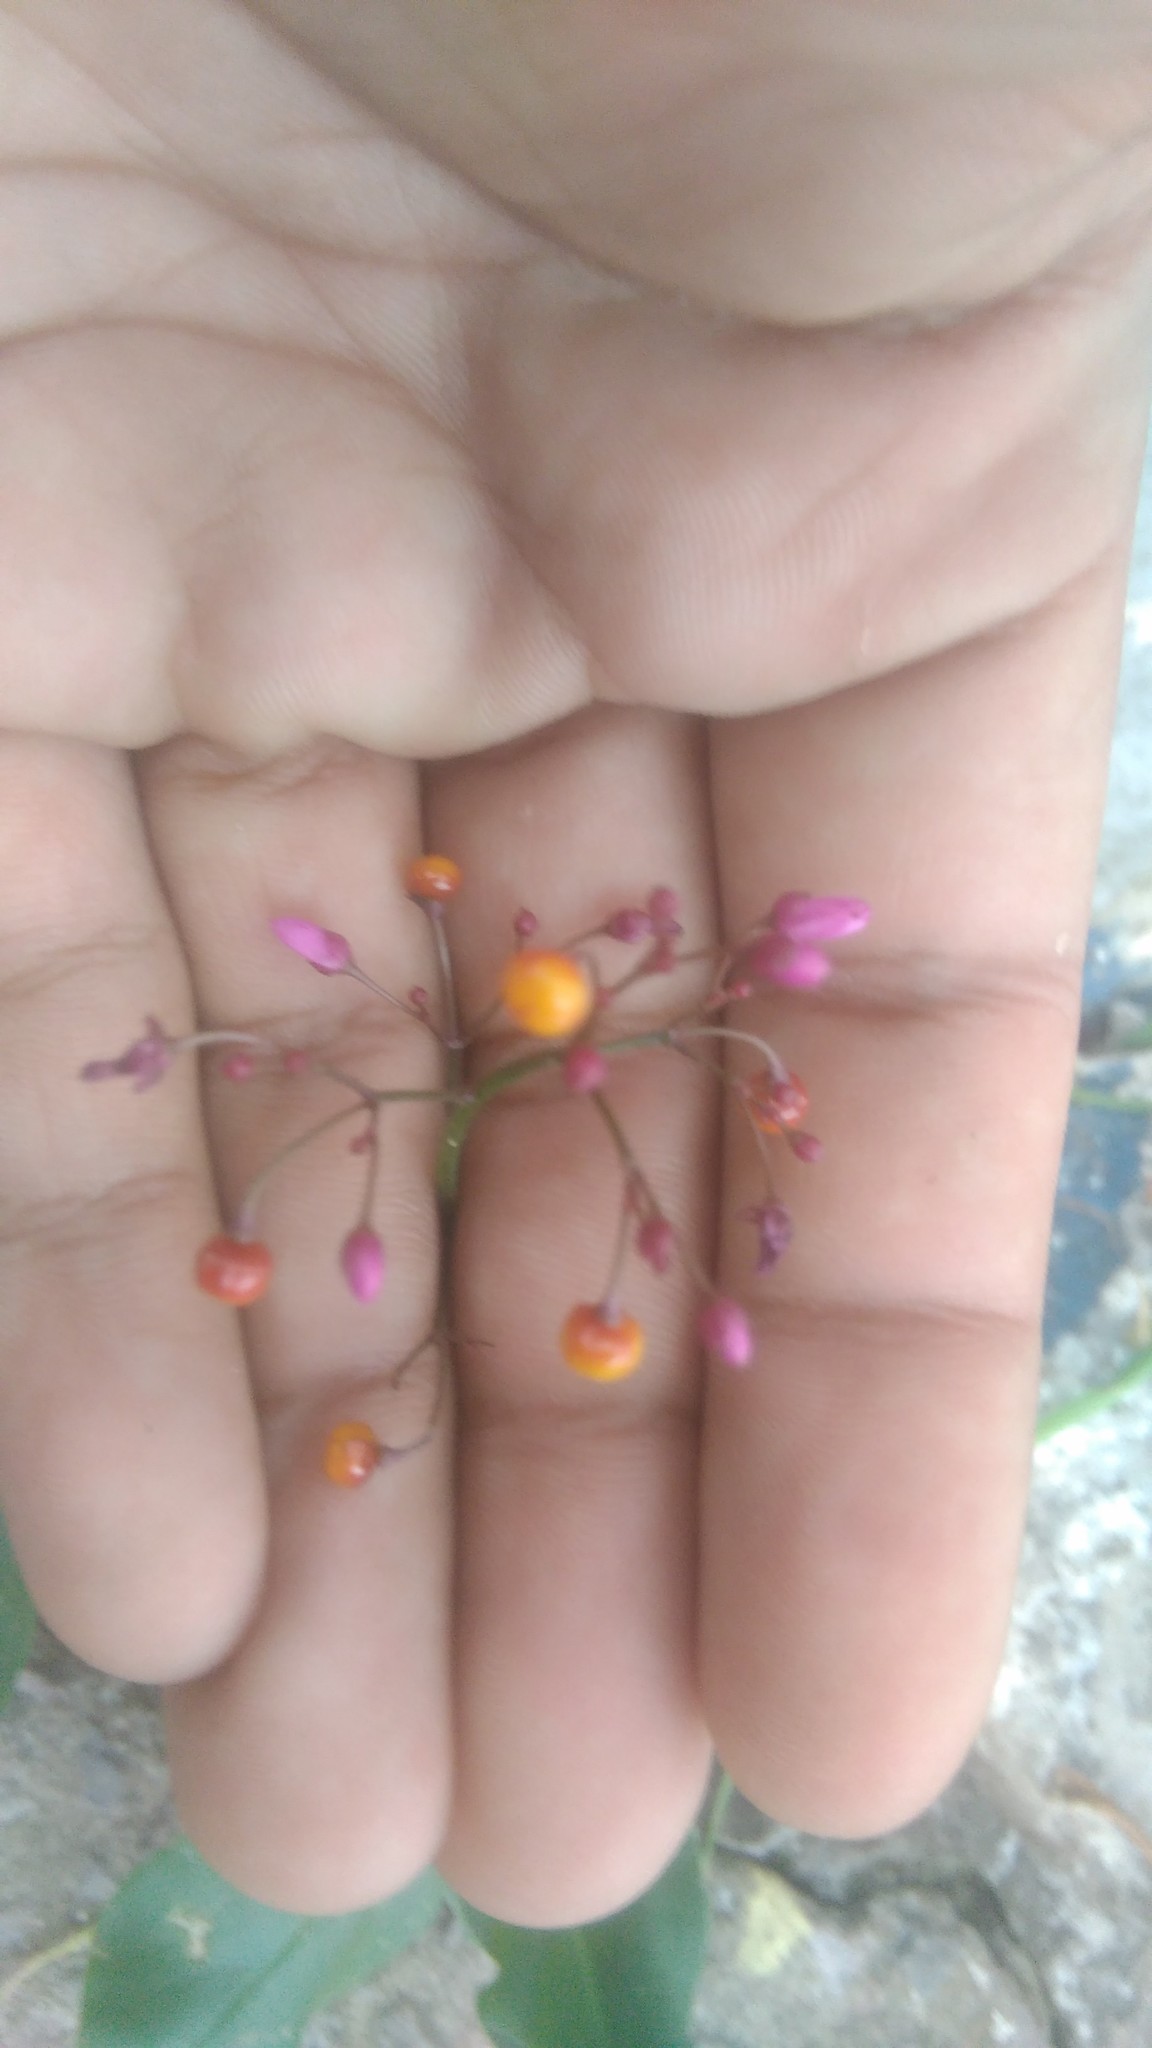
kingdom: Plantae
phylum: Tracheophyta
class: Magnoliopsida
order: Caryophyllales
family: Talinaceae
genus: Talinum
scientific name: Talinum paniculatum
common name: Jewels of opar
